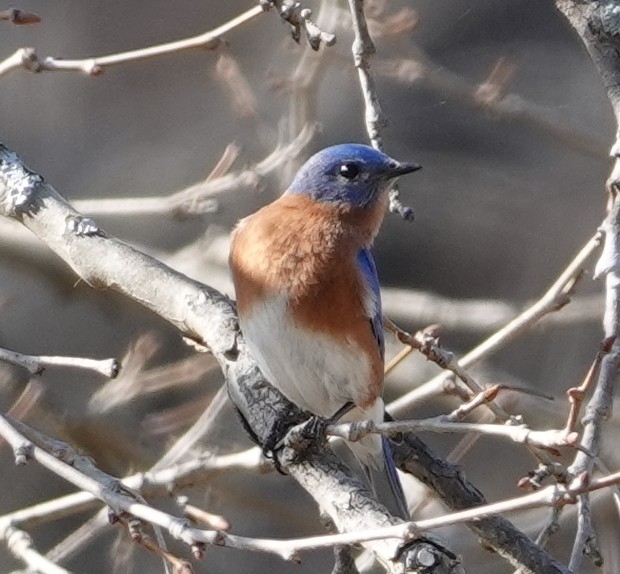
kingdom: Animalia
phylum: Chordata
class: Aves
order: Passeriformes
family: Turdidae
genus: Sialia
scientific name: Sialia sialis
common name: Eastern bluebird
